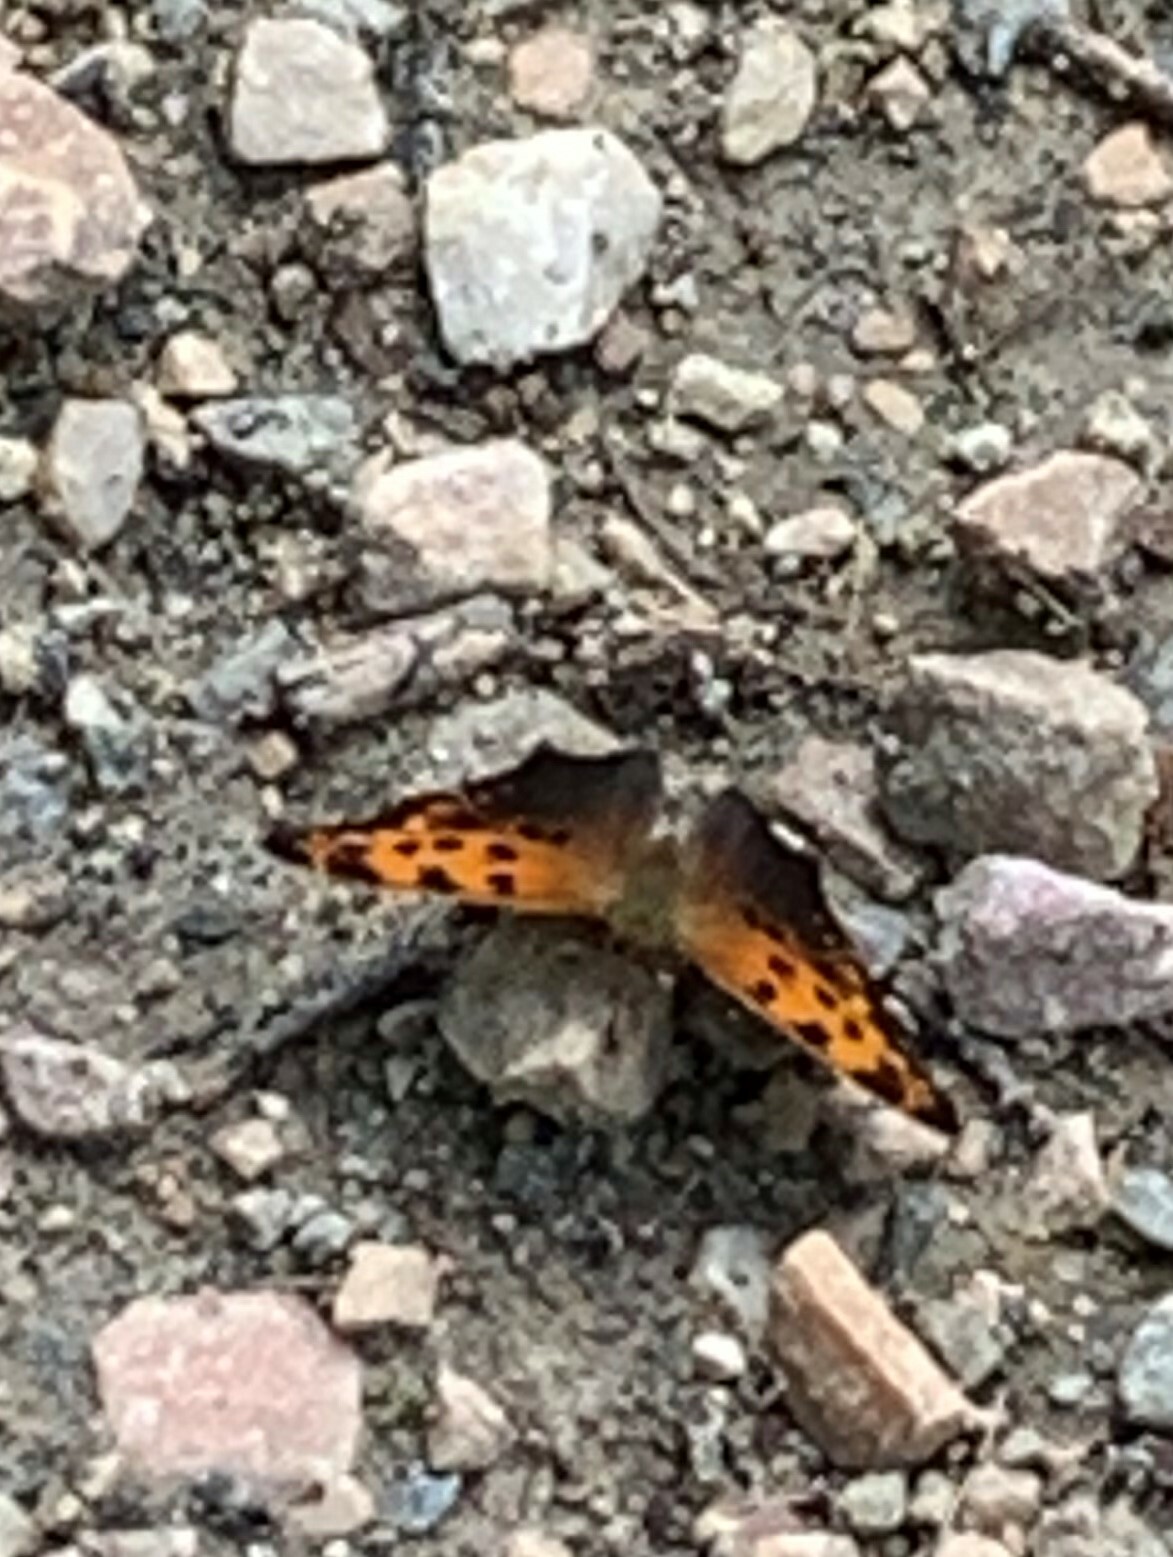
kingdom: Animalia
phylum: Arthropoda
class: Insecta
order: Lepidoptera
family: Nymphalidae
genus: Polygonia
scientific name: Polygonia comma
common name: Eastern comma
